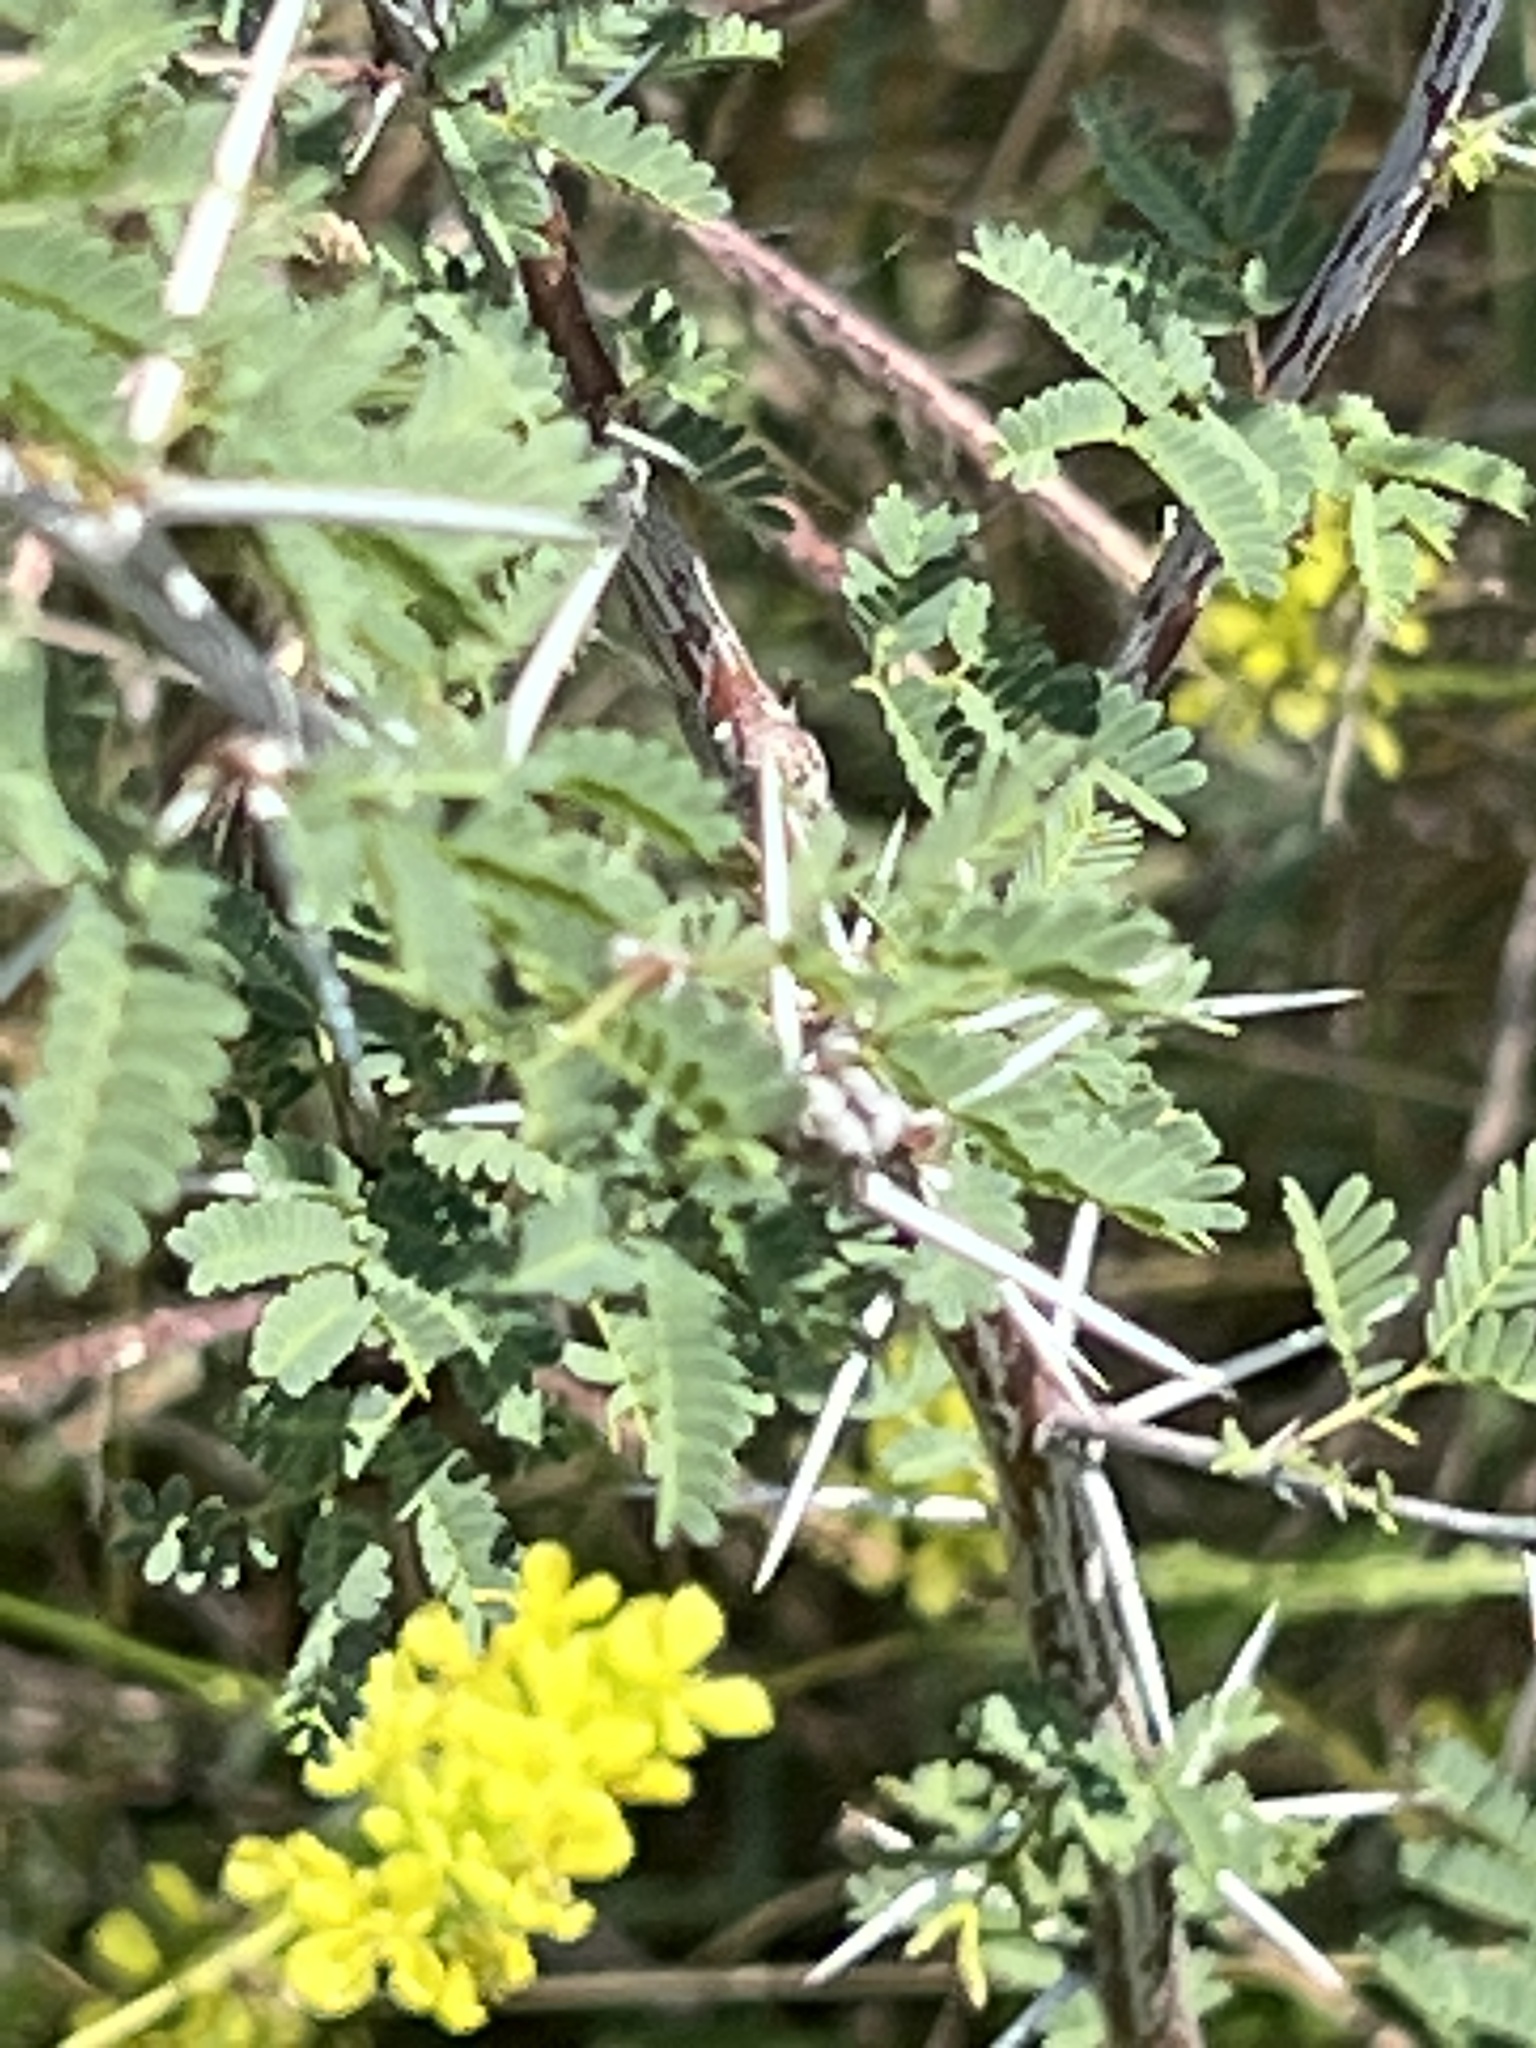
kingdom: Plantae
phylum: Tracheophyta
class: Magnoliopsida
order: Fabales
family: Fabaceae
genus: Vachellia
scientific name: Vachellia farnesiana
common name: Sweet acacia
